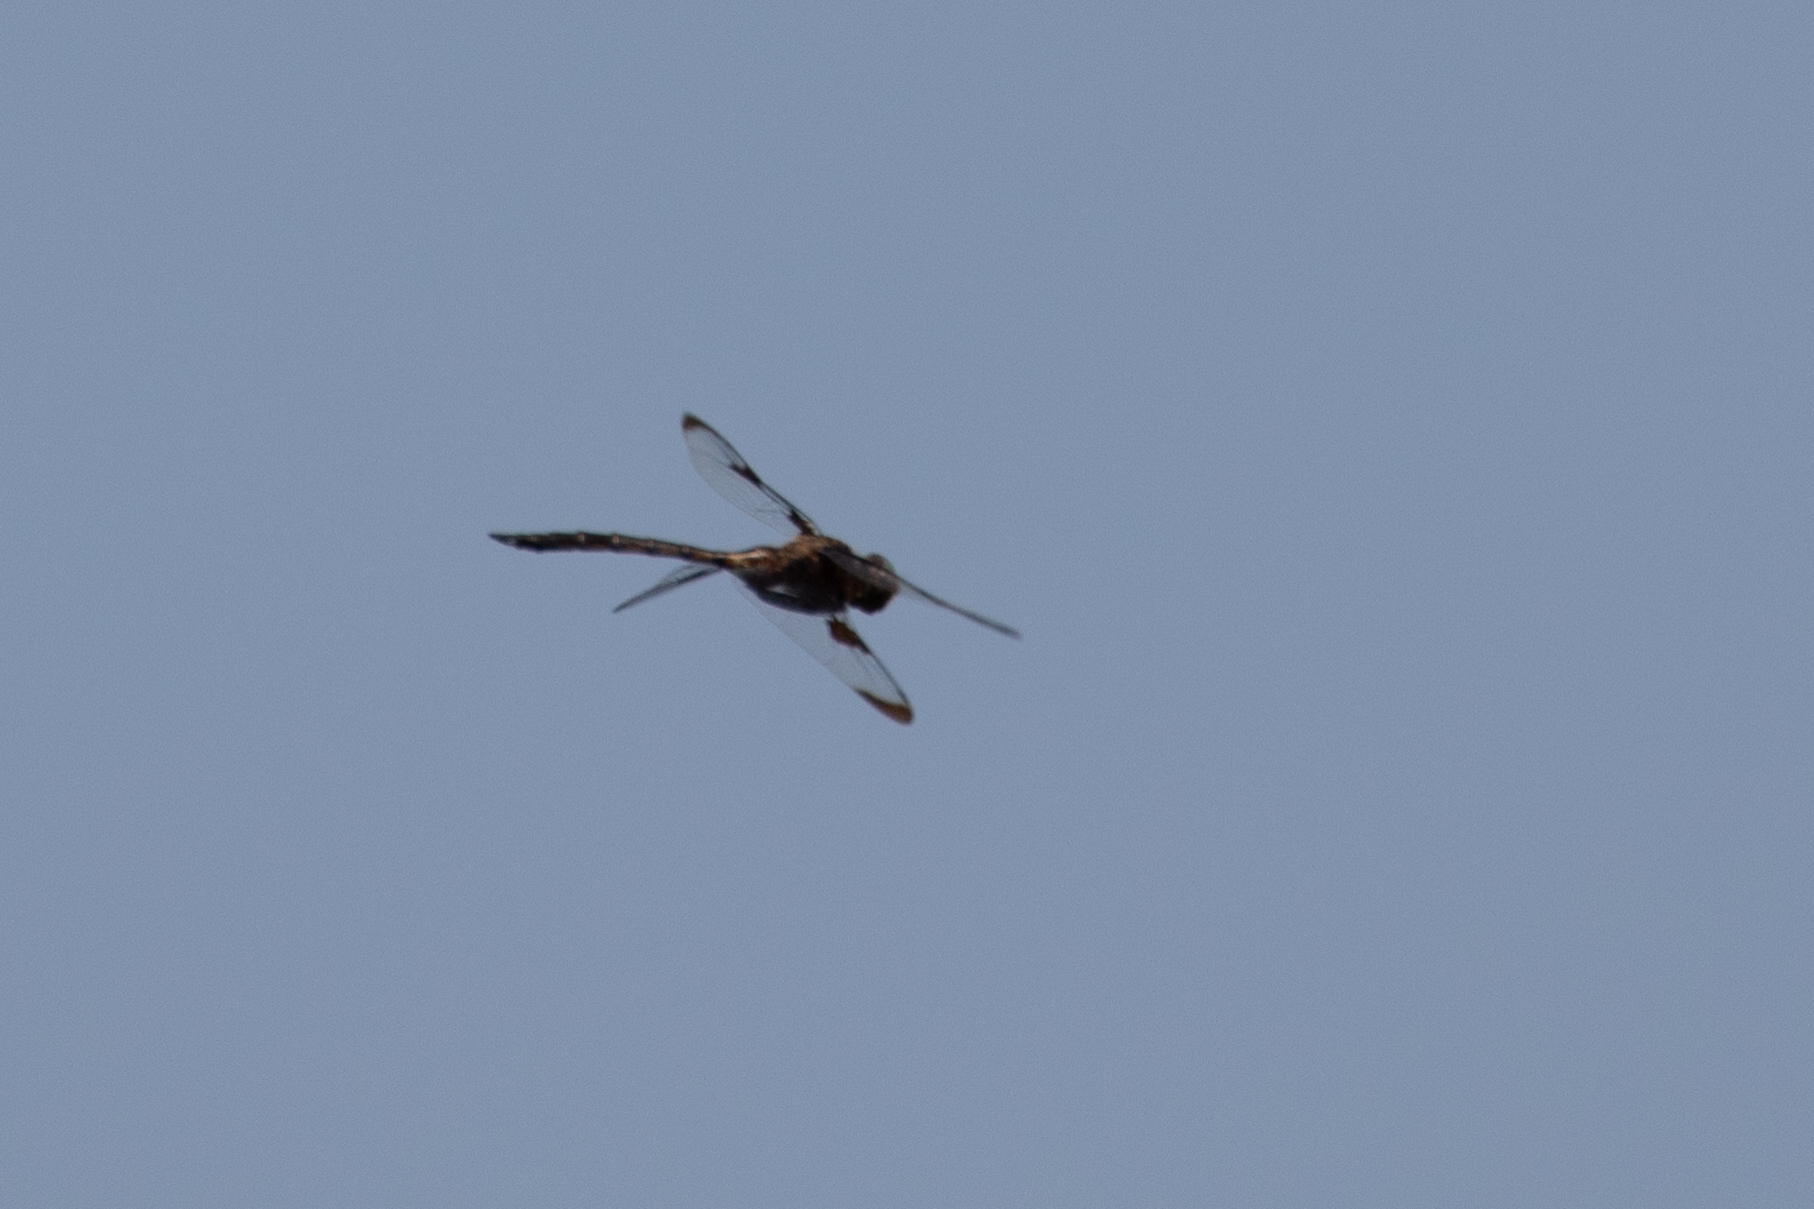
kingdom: Animalia
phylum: Arthropoda
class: Insecta
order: Odonata
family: Corduliidae
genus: Epitheca
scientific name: Epitheca princeps
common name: Prince baskettail
